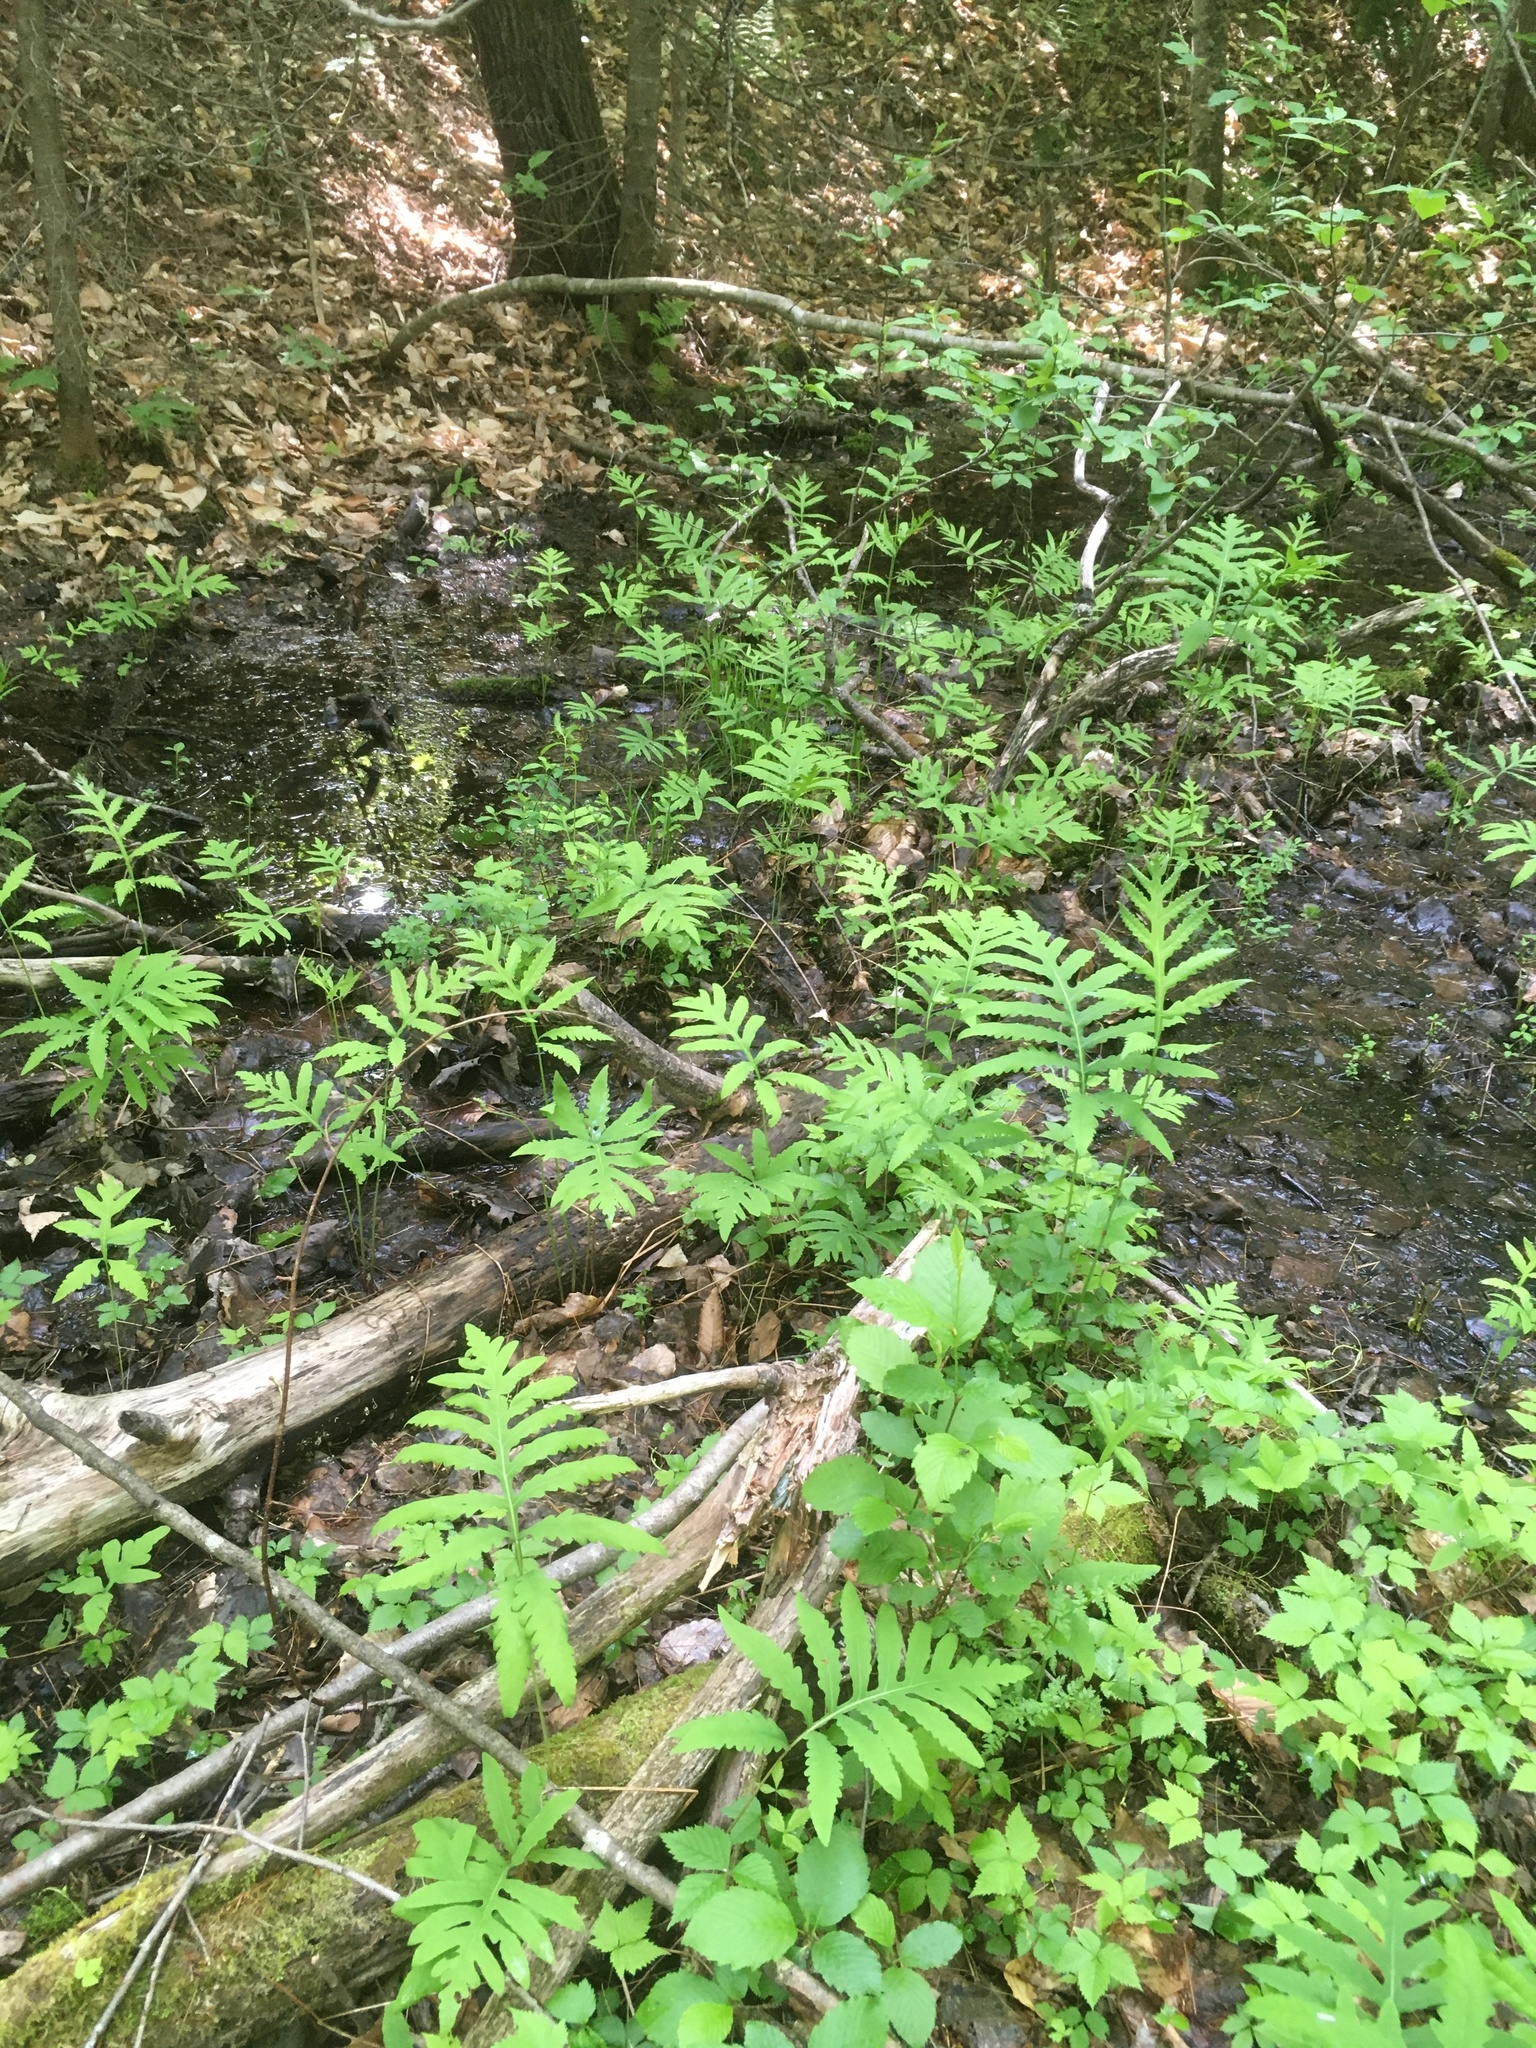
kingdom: Plantae
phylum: Tracheophyta
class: Polypodiopsida
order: Polypodiales
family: Onocleaceae
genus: Onoclea
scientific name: Onoclea sensibilis
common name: Sensitive fern
